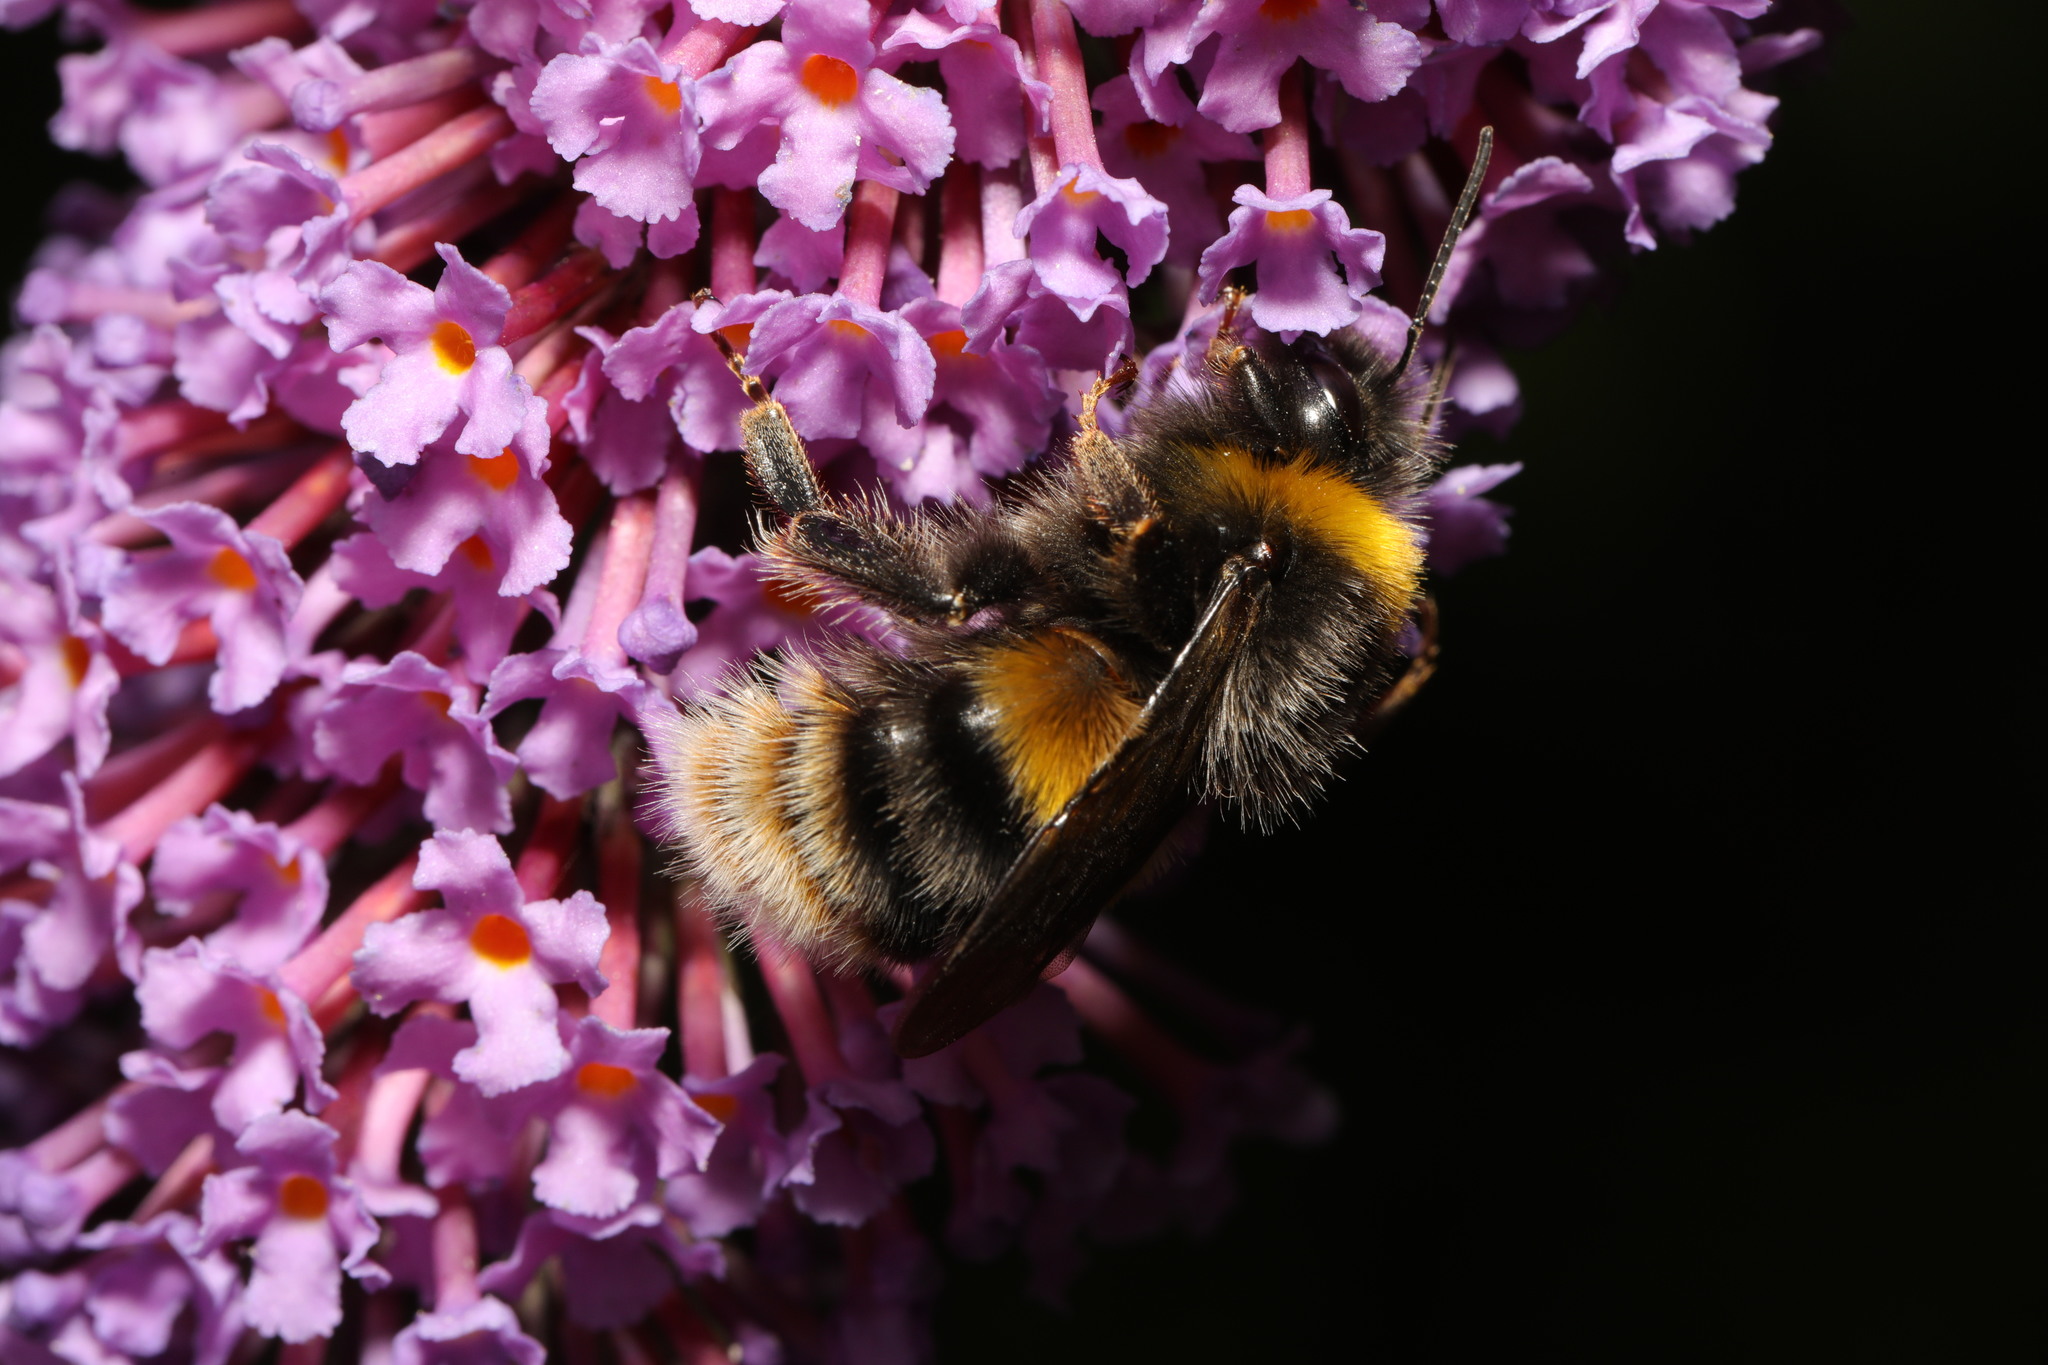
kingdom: Animalia
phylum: Arthropoda
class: Insecta
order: Hymenoptera
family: Apidae
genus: Bombus
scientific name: Bombus terrestris
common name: Buff-tailed bumblebee
